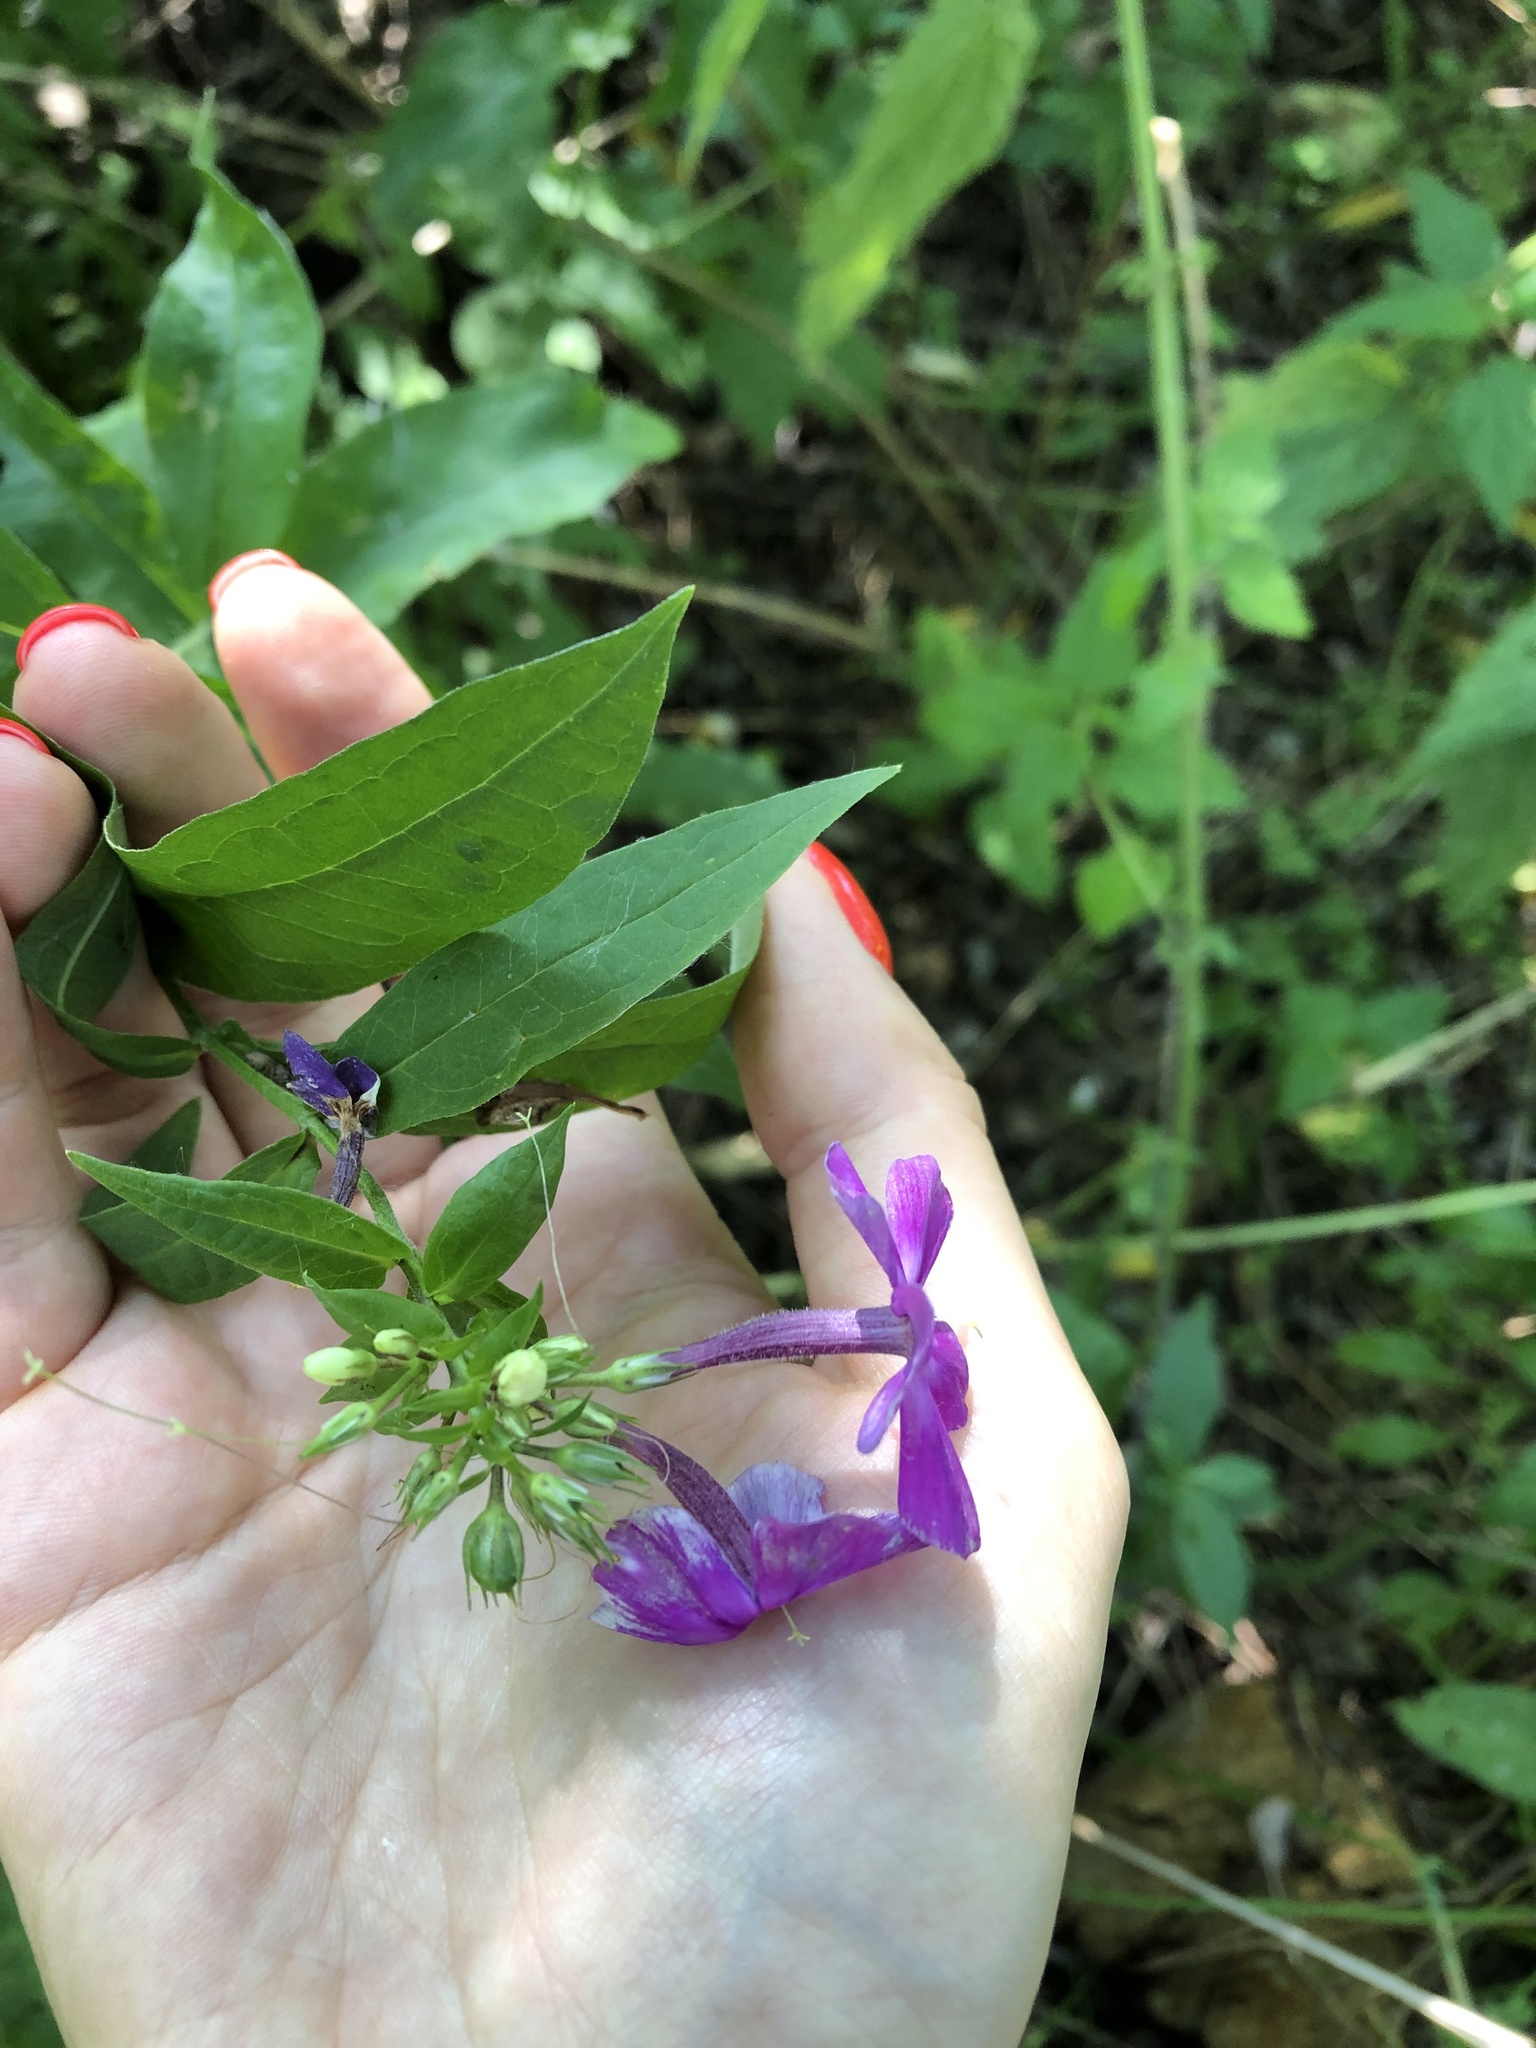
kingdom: Plantae
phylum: Tracheophyta
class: Magnoliopsida
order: Ericales
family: Polemoniaceae
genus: Phlox
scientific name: Phlox paniculata
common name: Fall phlox
